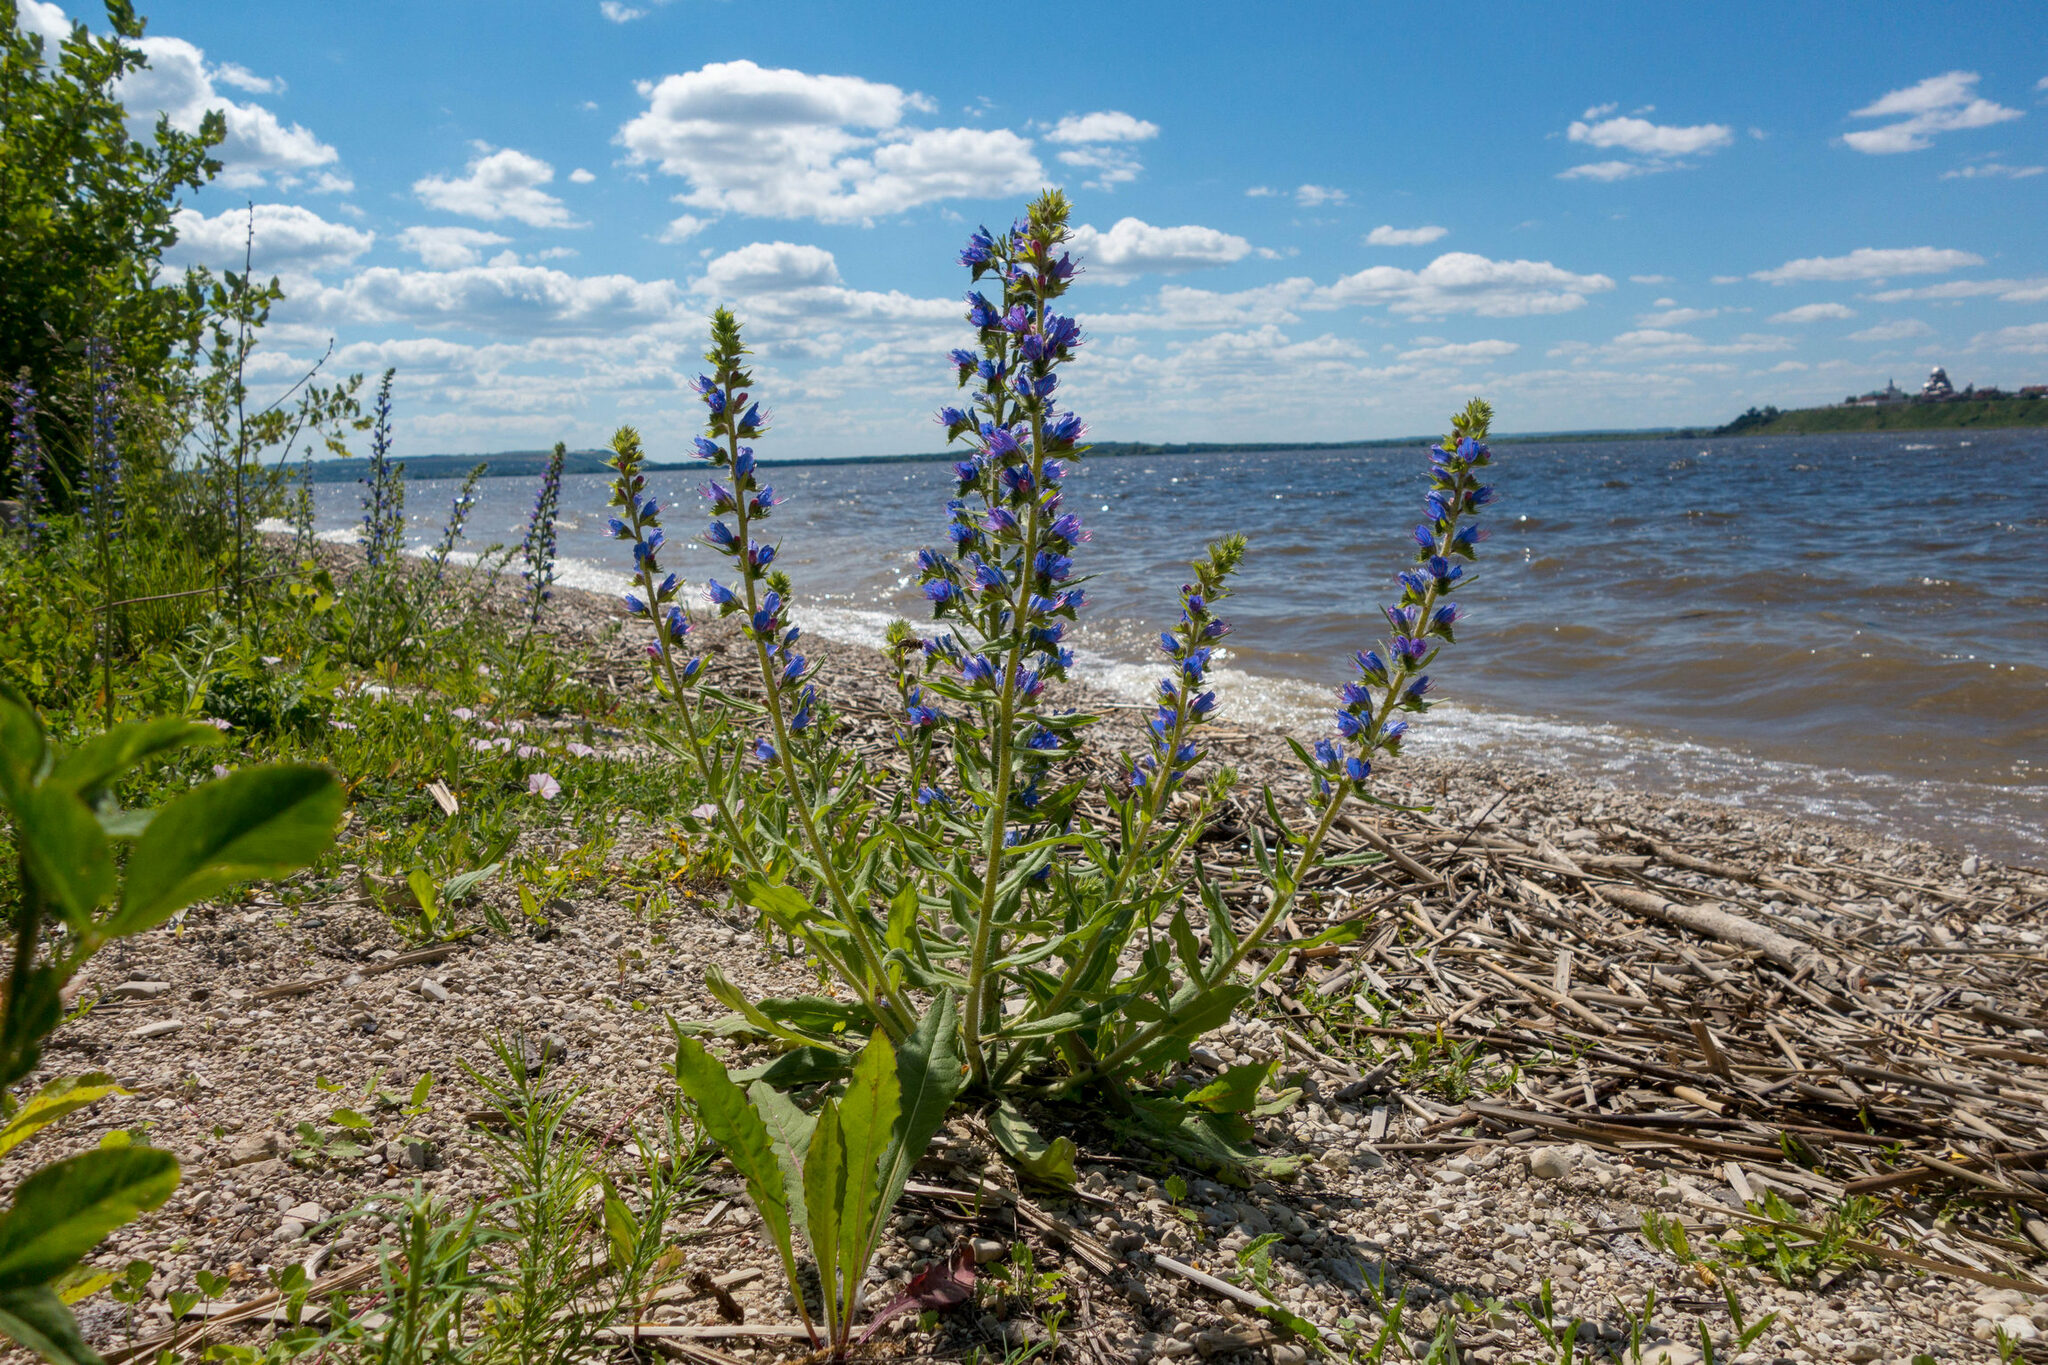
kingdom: Plantae
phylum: Tracheophyta
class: Magnoliopsida
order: Boraginales
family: Boraginaceae
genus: Echium
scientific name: Echium vulgare
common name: Common viper's bugloss
